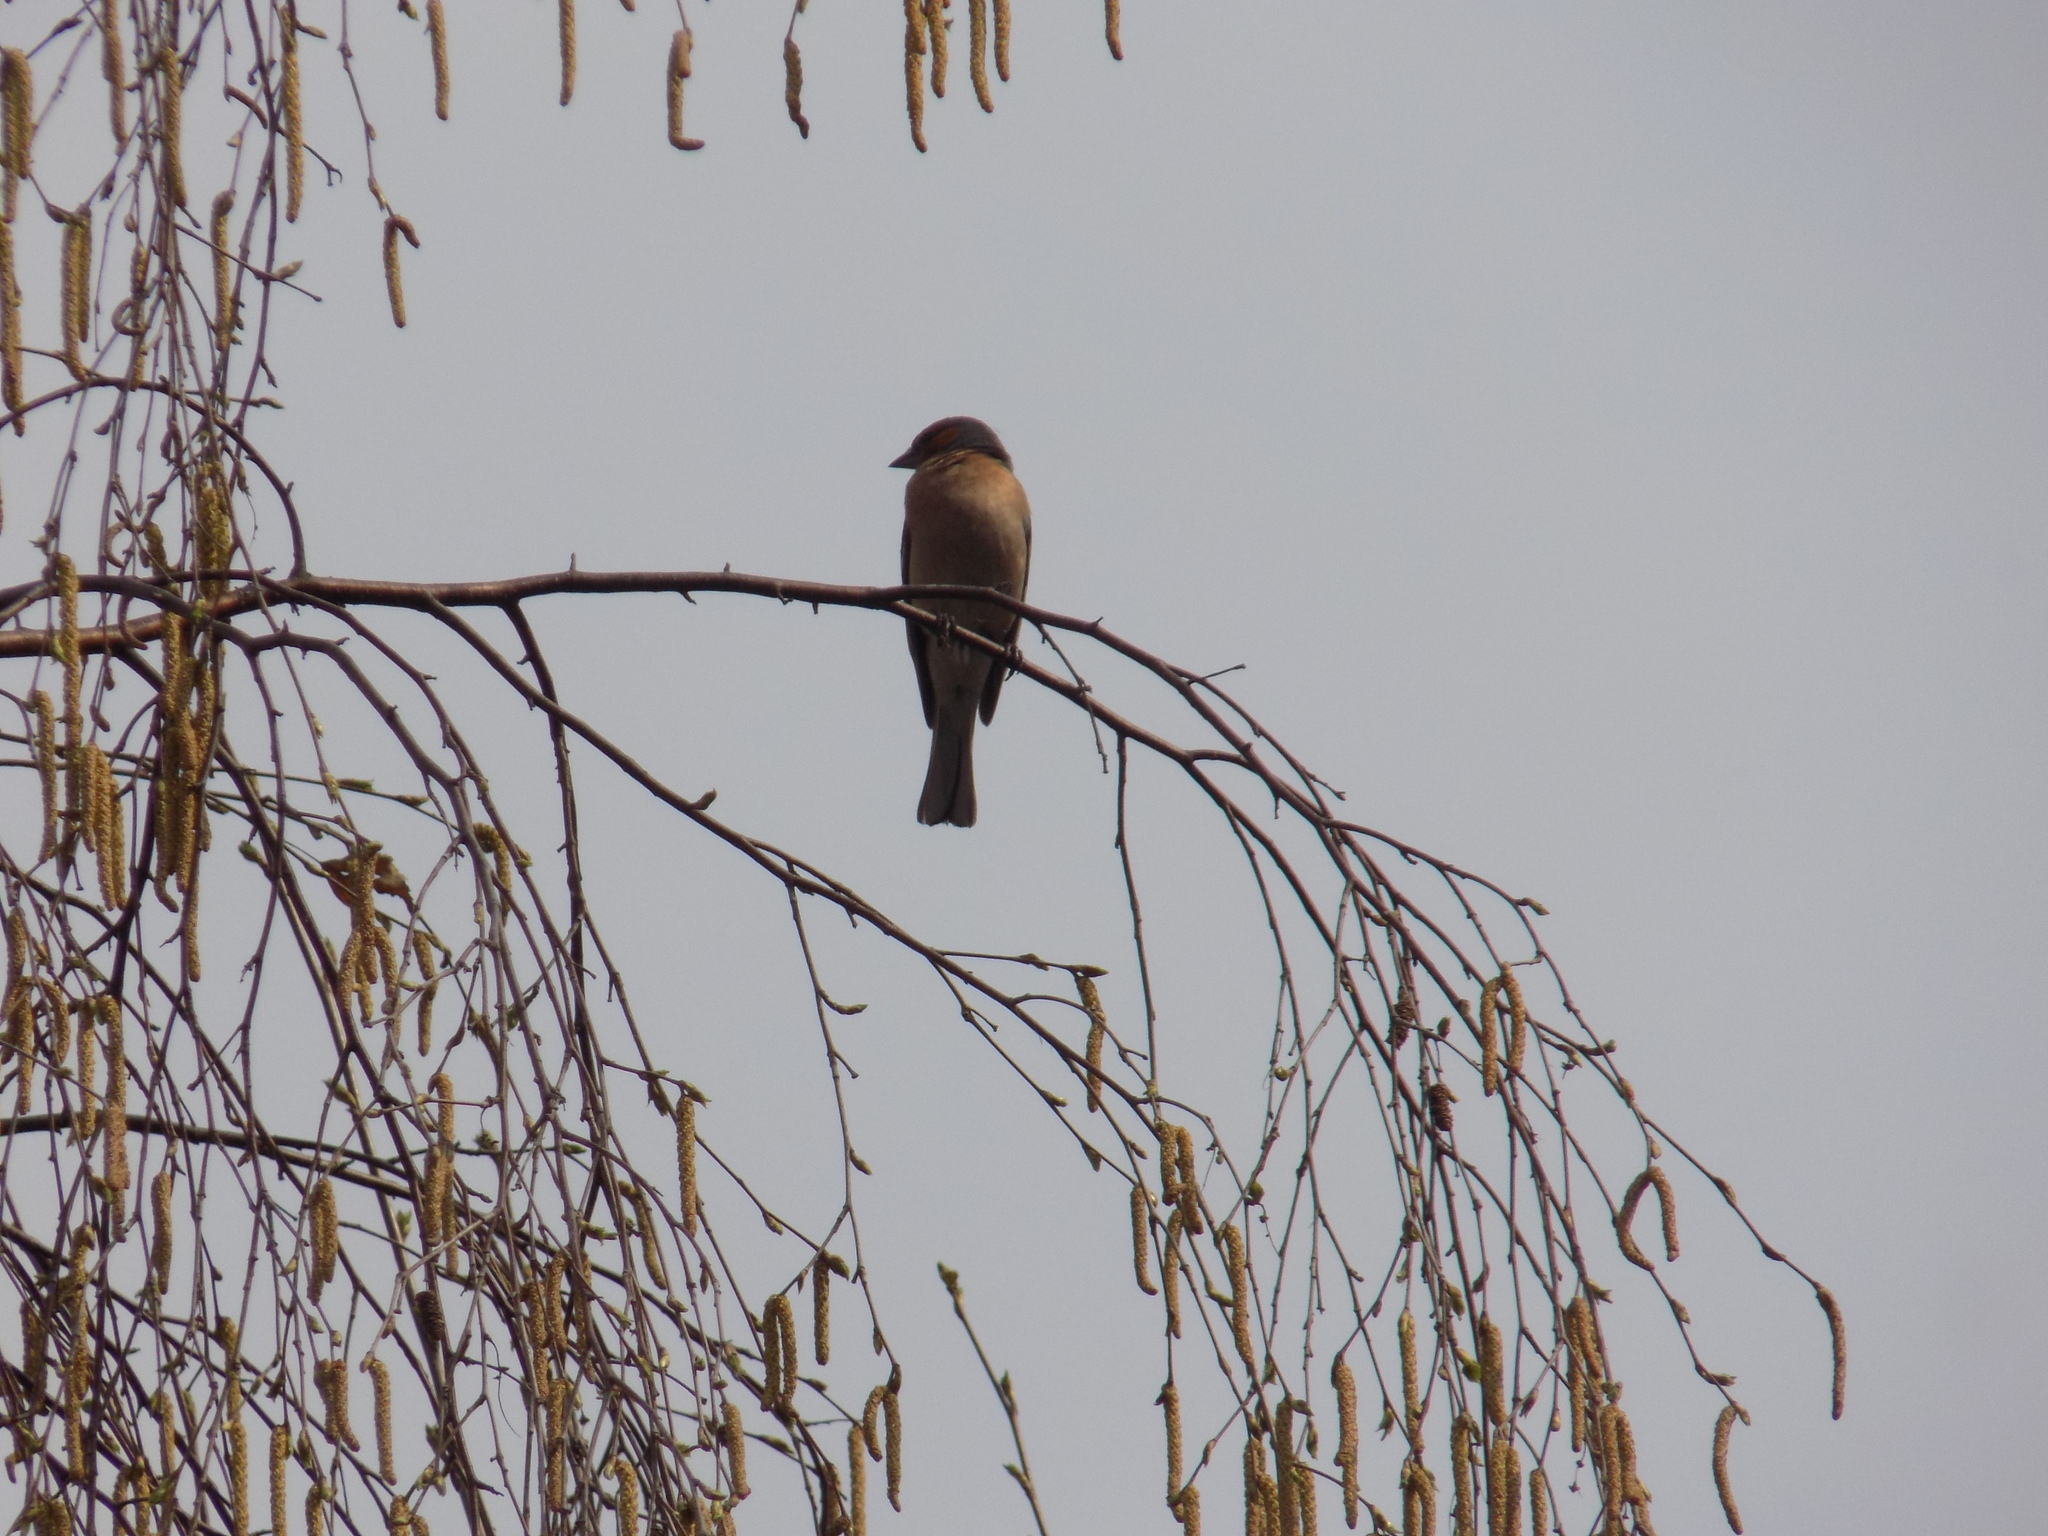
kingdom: Animalia
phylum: Chordata
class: Aves
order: Passeriformes
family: Fringillidae
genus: Fringilla
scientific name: Fringilla coelebs
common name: Common chaffinch
